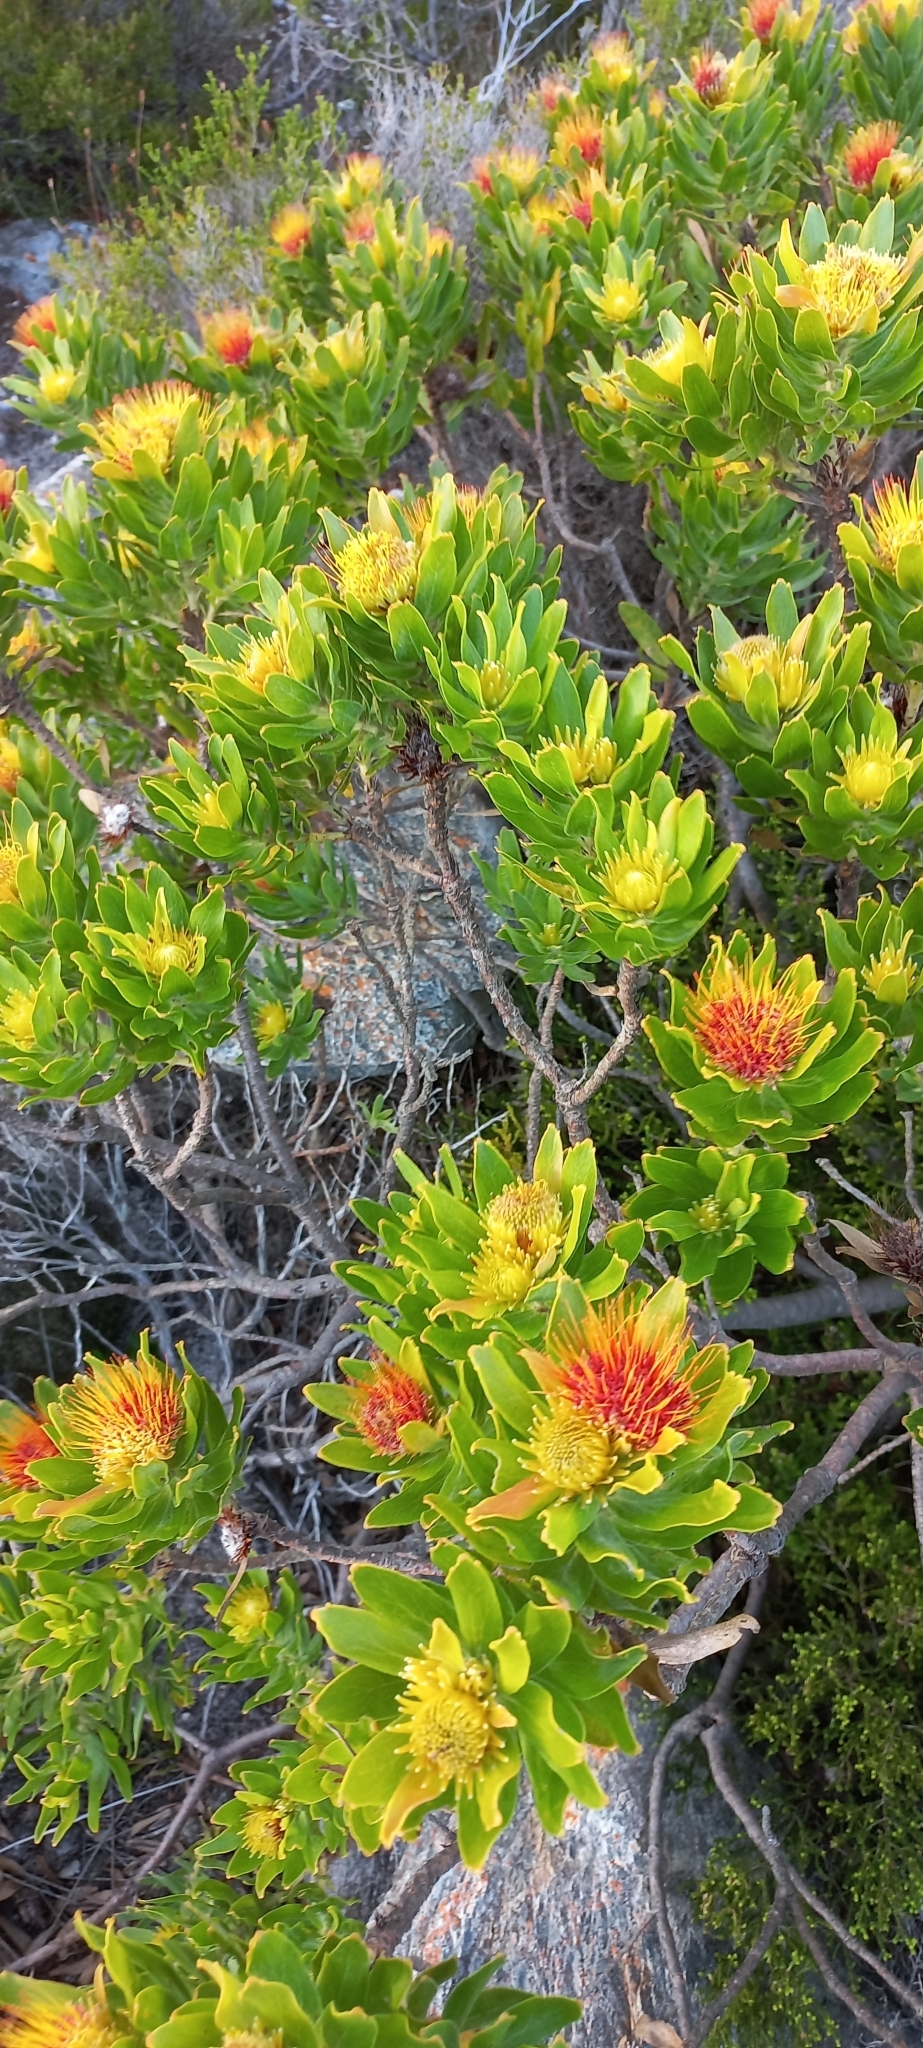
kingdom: Plantae
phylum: Tracheophyta
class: Magnoliopsida
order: Proteales
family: Proteaceae
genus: Leucospermum
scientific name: Leucospermum oleifolium
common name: Matches
